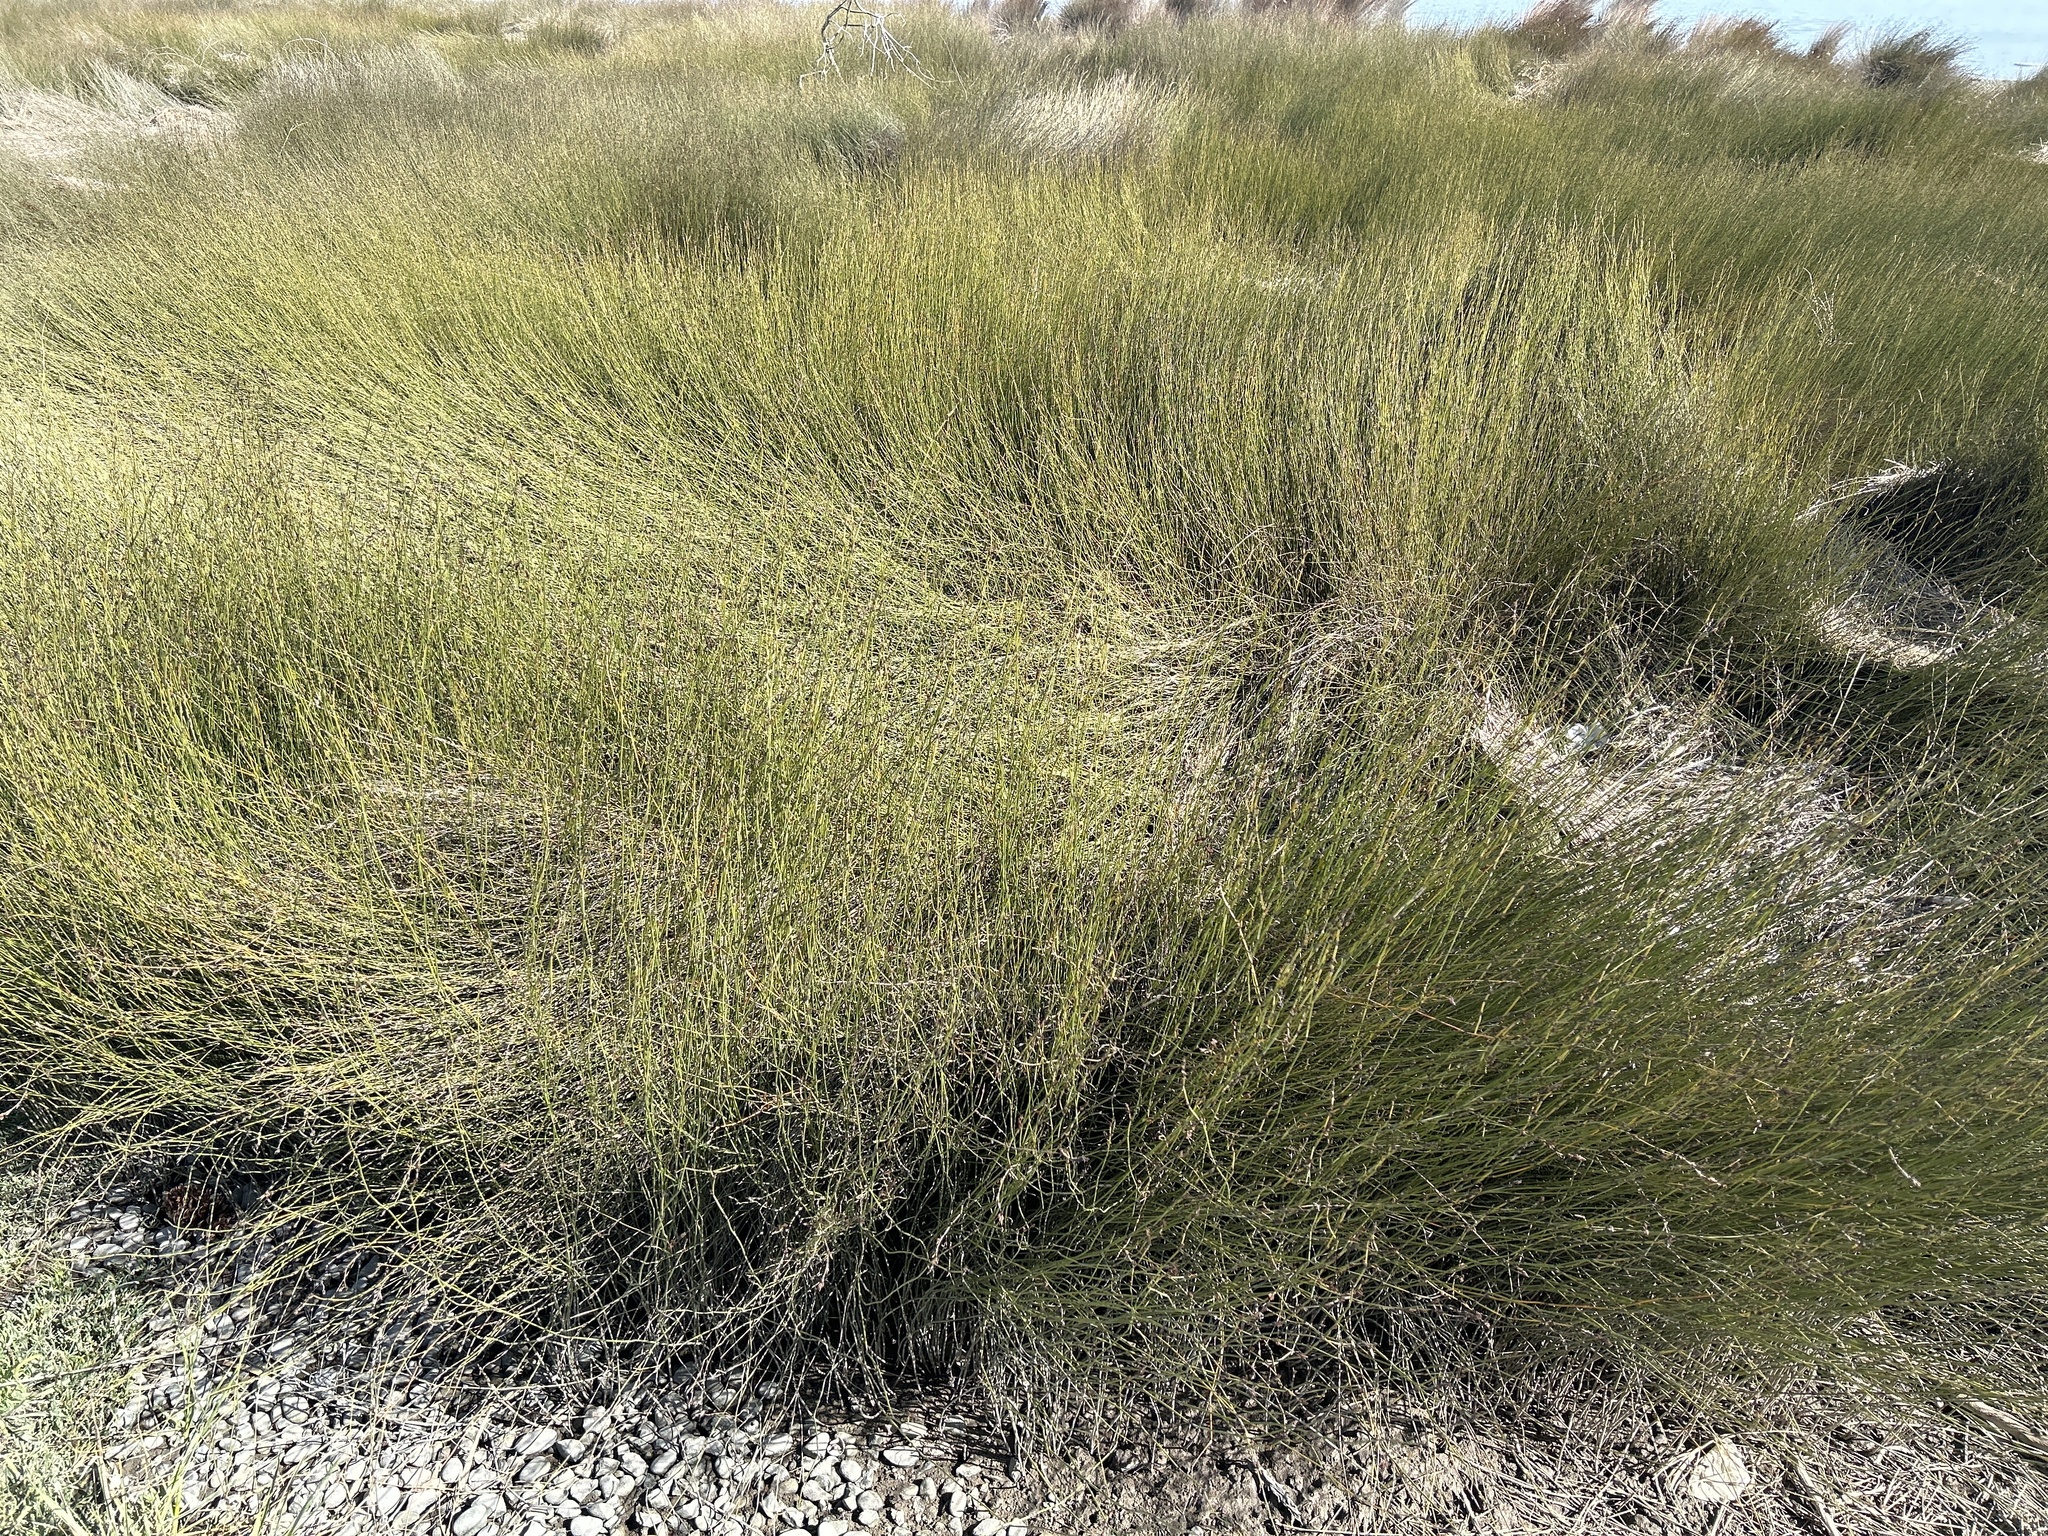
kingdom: Plantae
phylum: Tracheophyta
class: Liliopsida
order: Poales
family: Restionaceae
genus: Apodasmia
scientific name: Apodasmia similis
